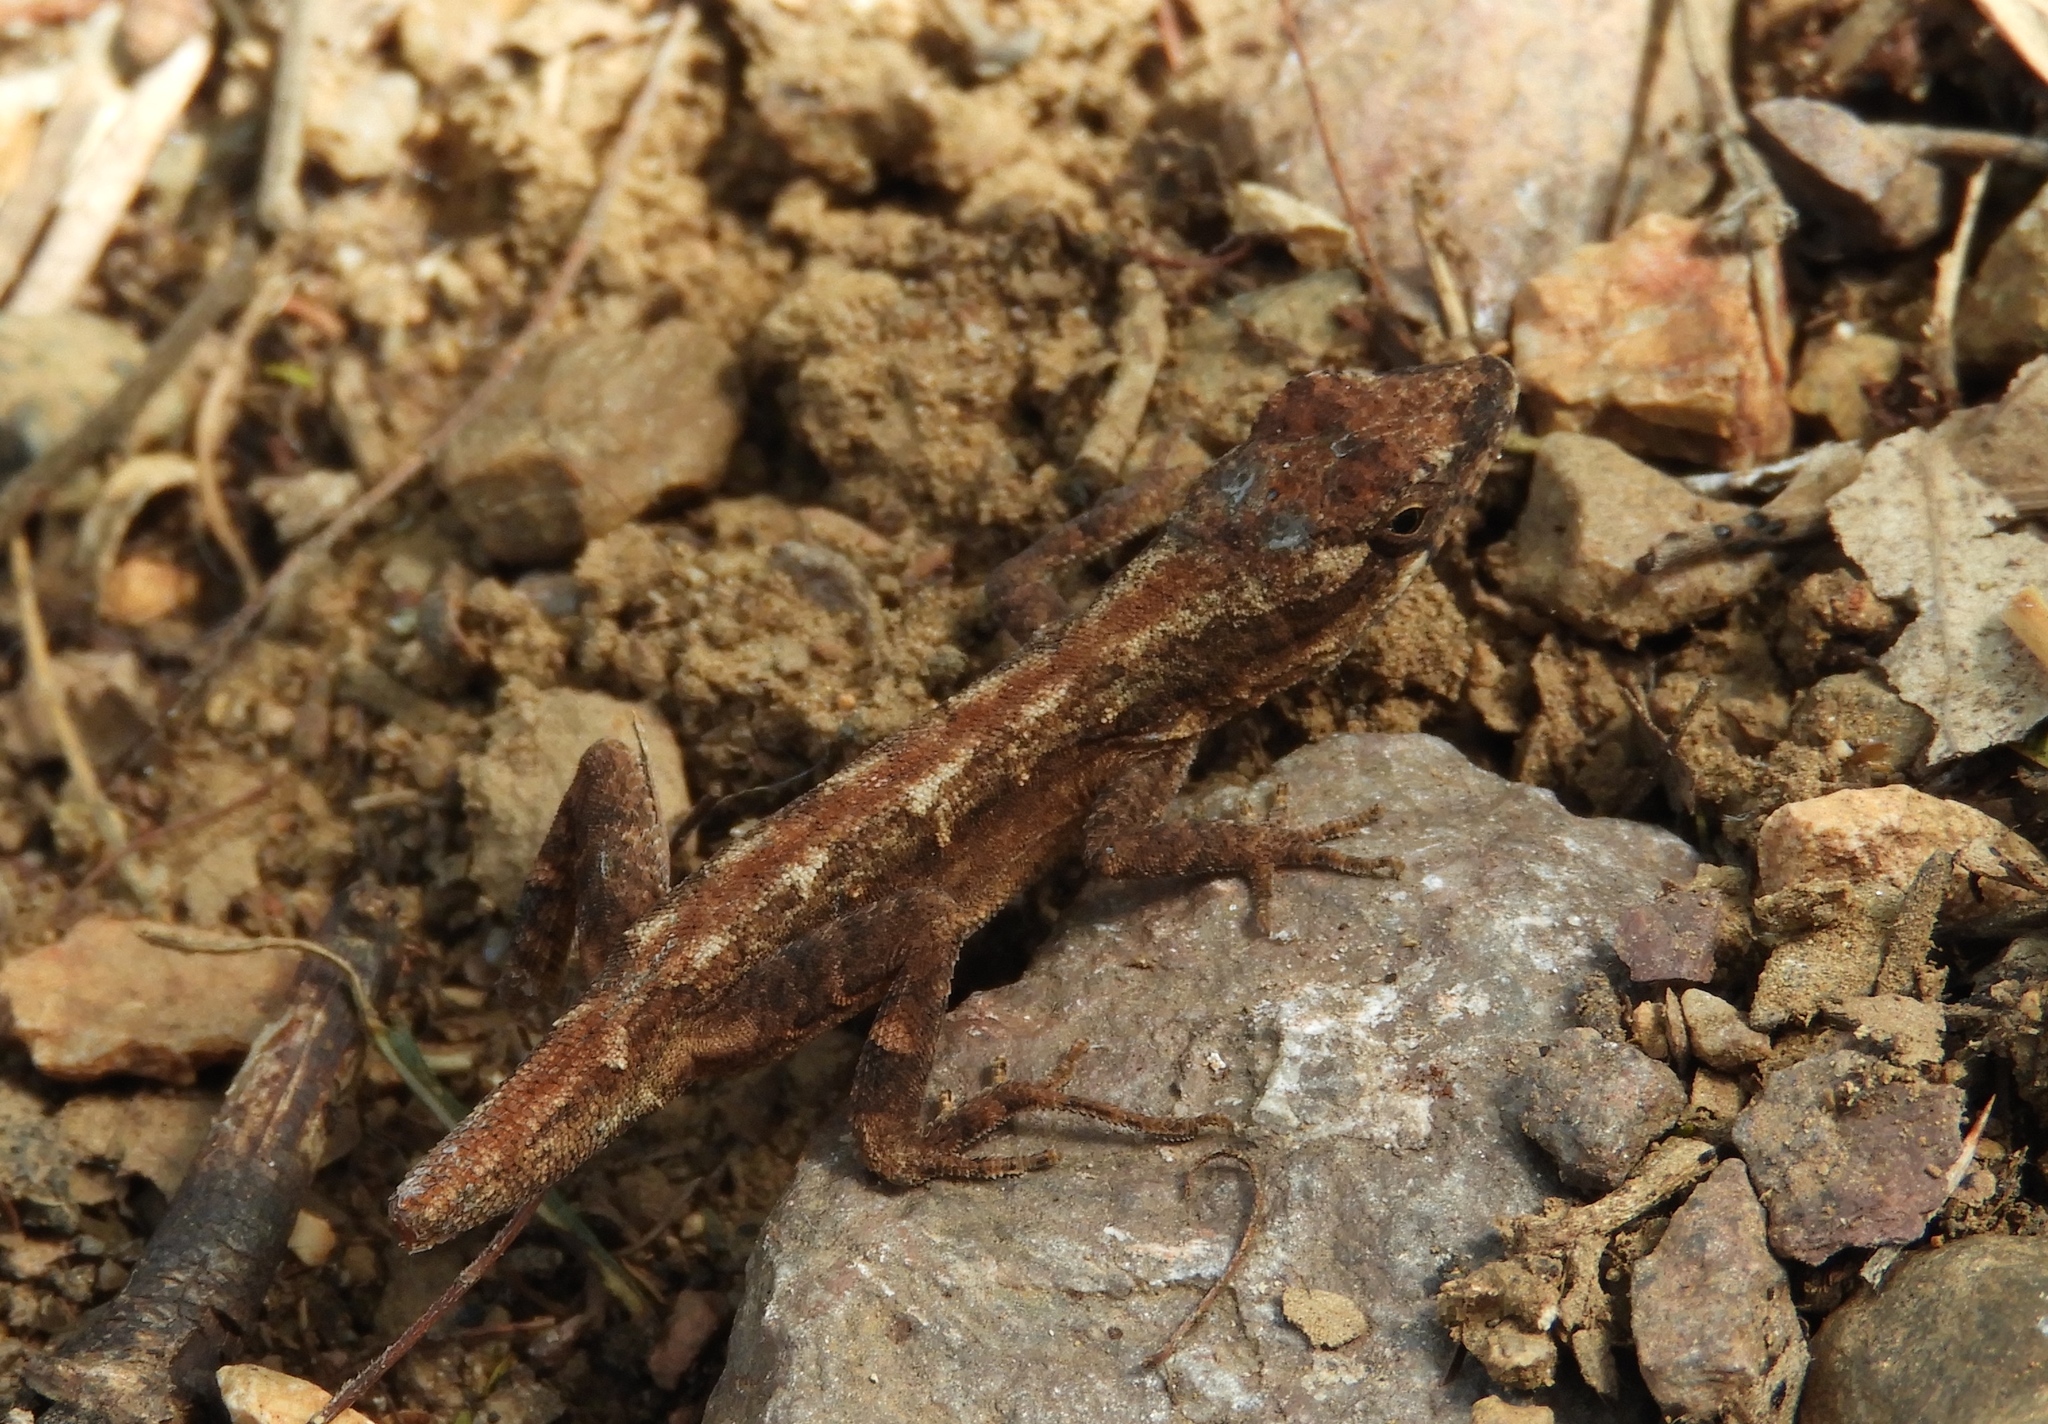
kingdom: Animalia
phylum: Chordata
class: Squamata
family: Dactyloidae
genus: Anolis
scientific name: Anolis nebulosus
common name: Clouded anole
